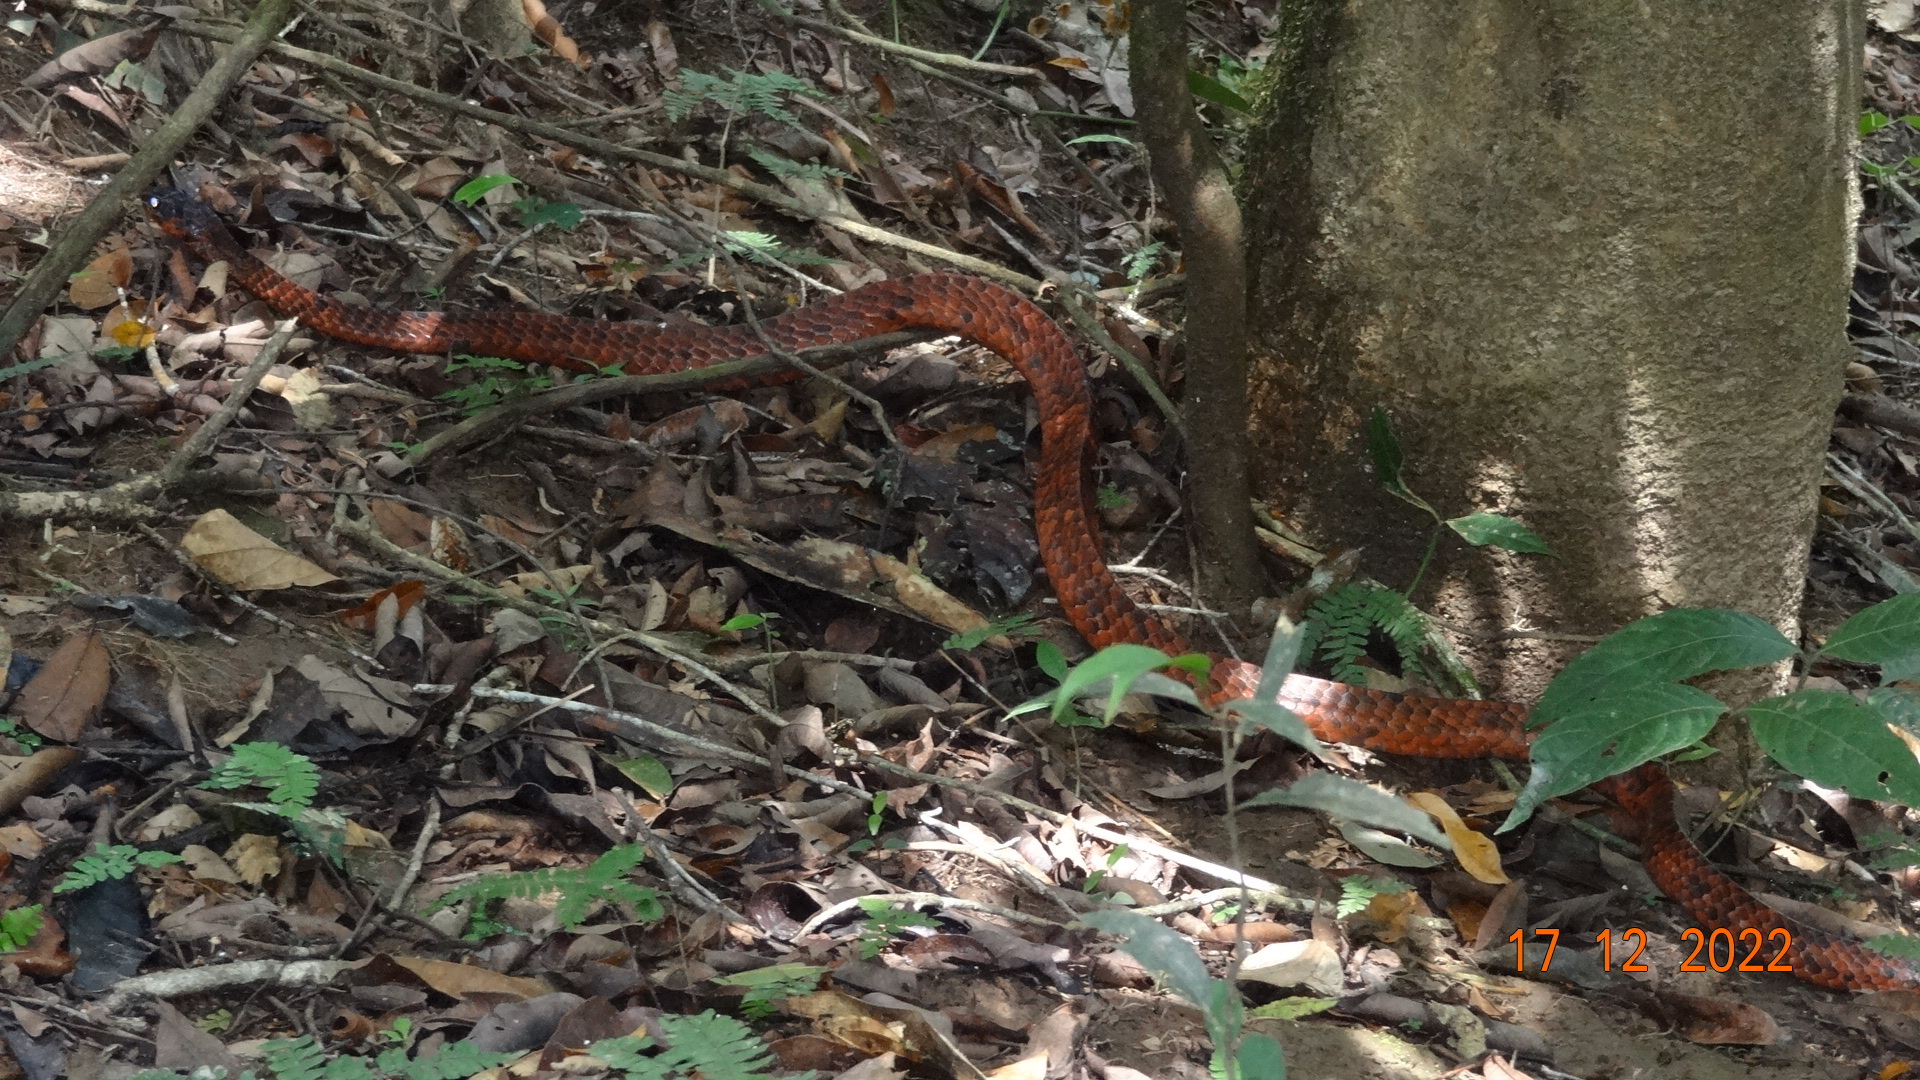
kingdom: Animalia
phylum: Chordata
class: Squamata
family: Colubridae
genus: Chironius
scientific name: Chironius scurrulus
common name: Wagler's sipo
